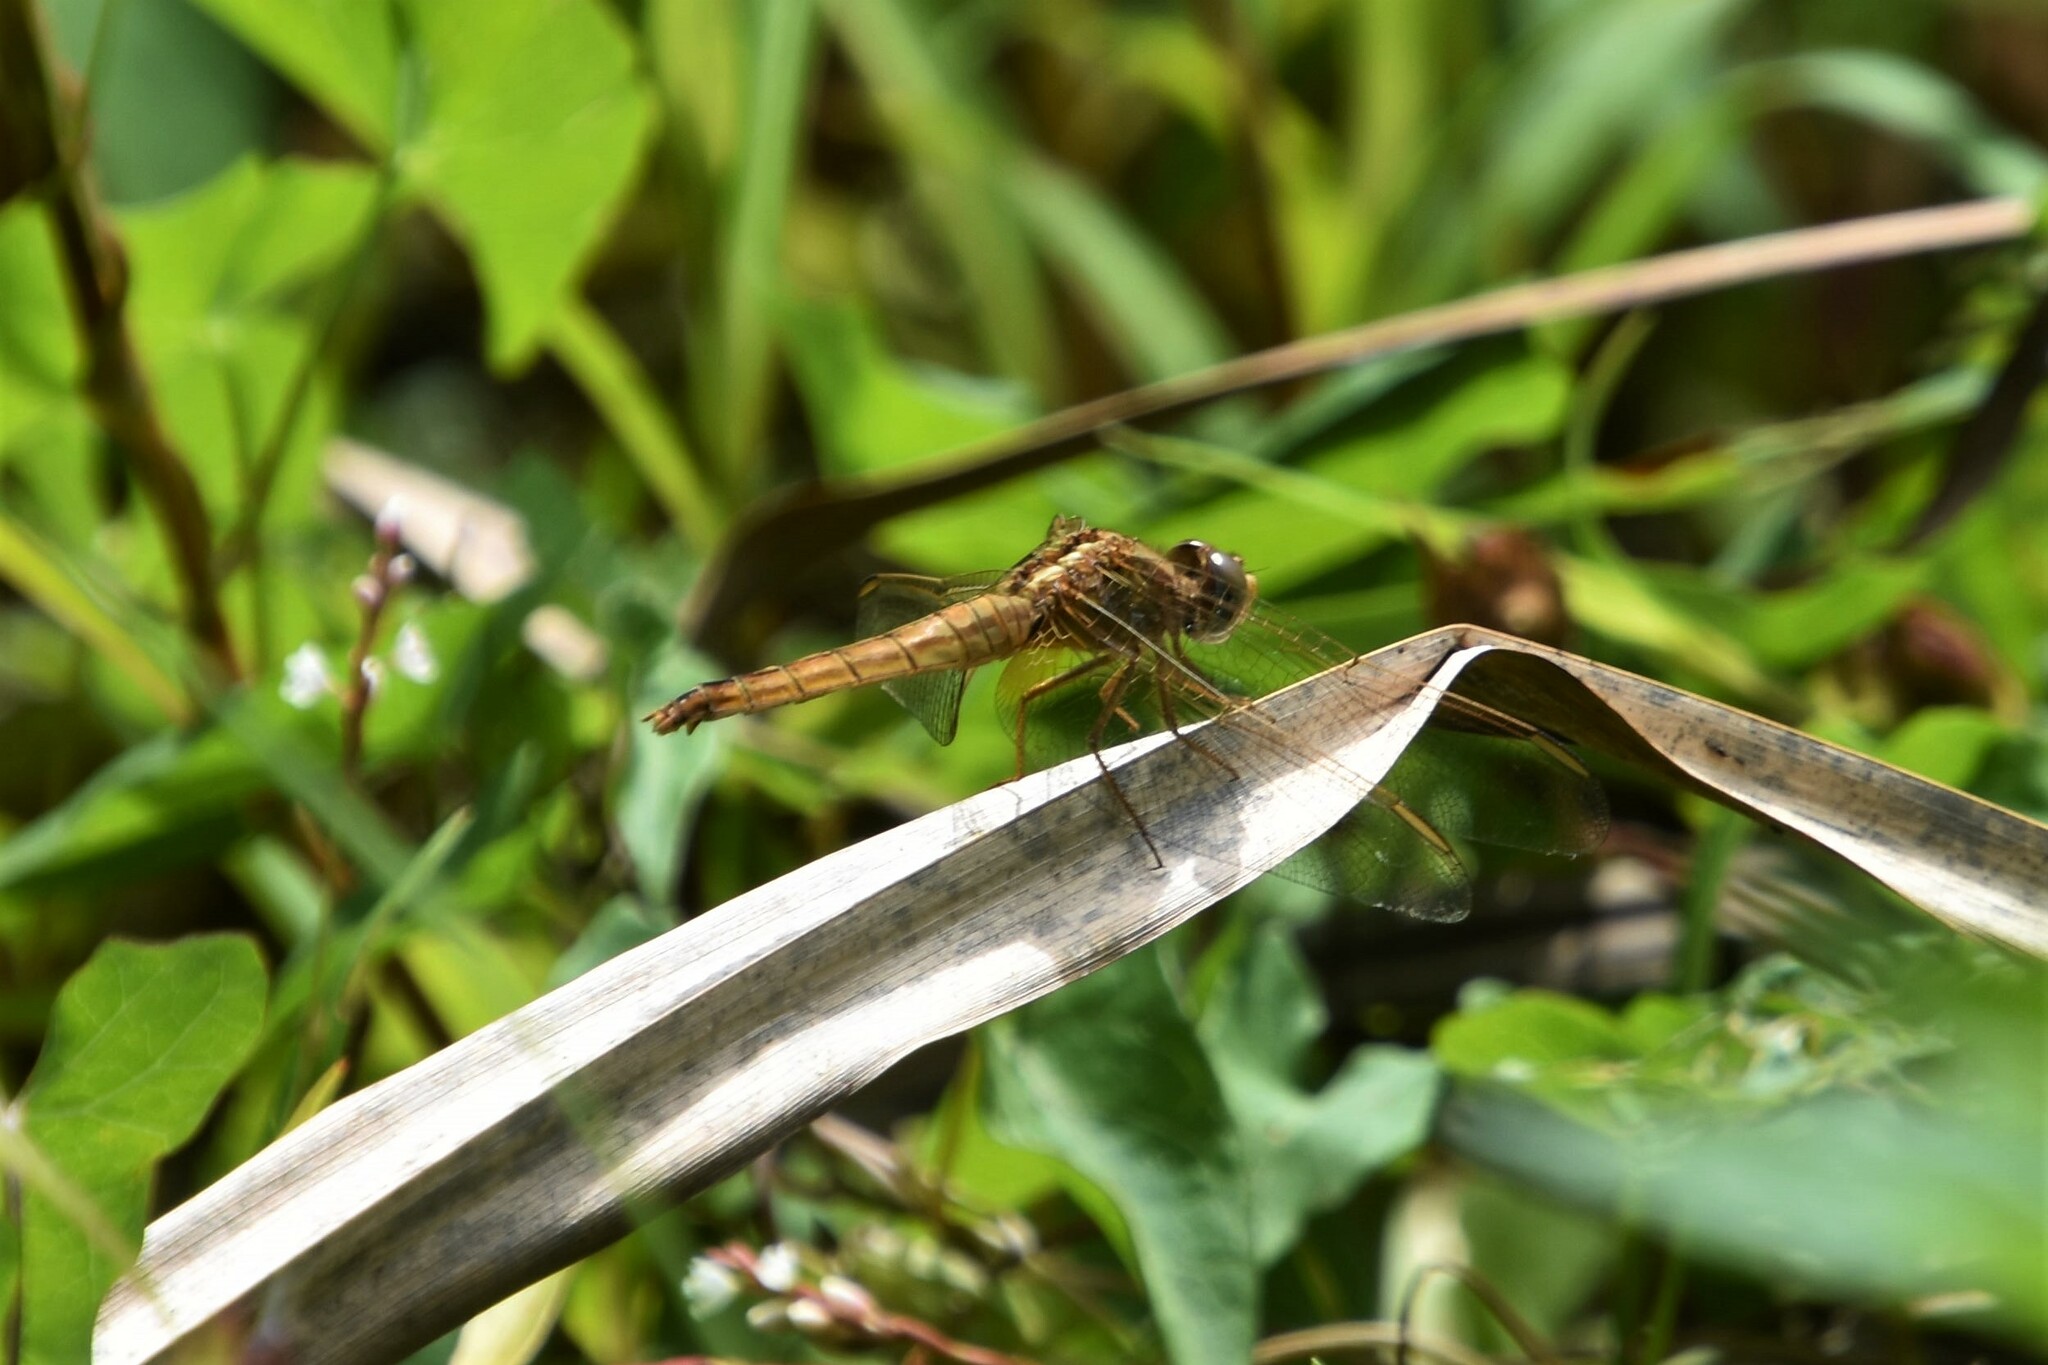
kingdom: Animalia
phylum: Arthropoda
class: Insecta
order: Odonata
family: Libellulidae
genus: Crocothemis
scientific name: Crocothemis erythraea
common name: Scarlet dragonfly
